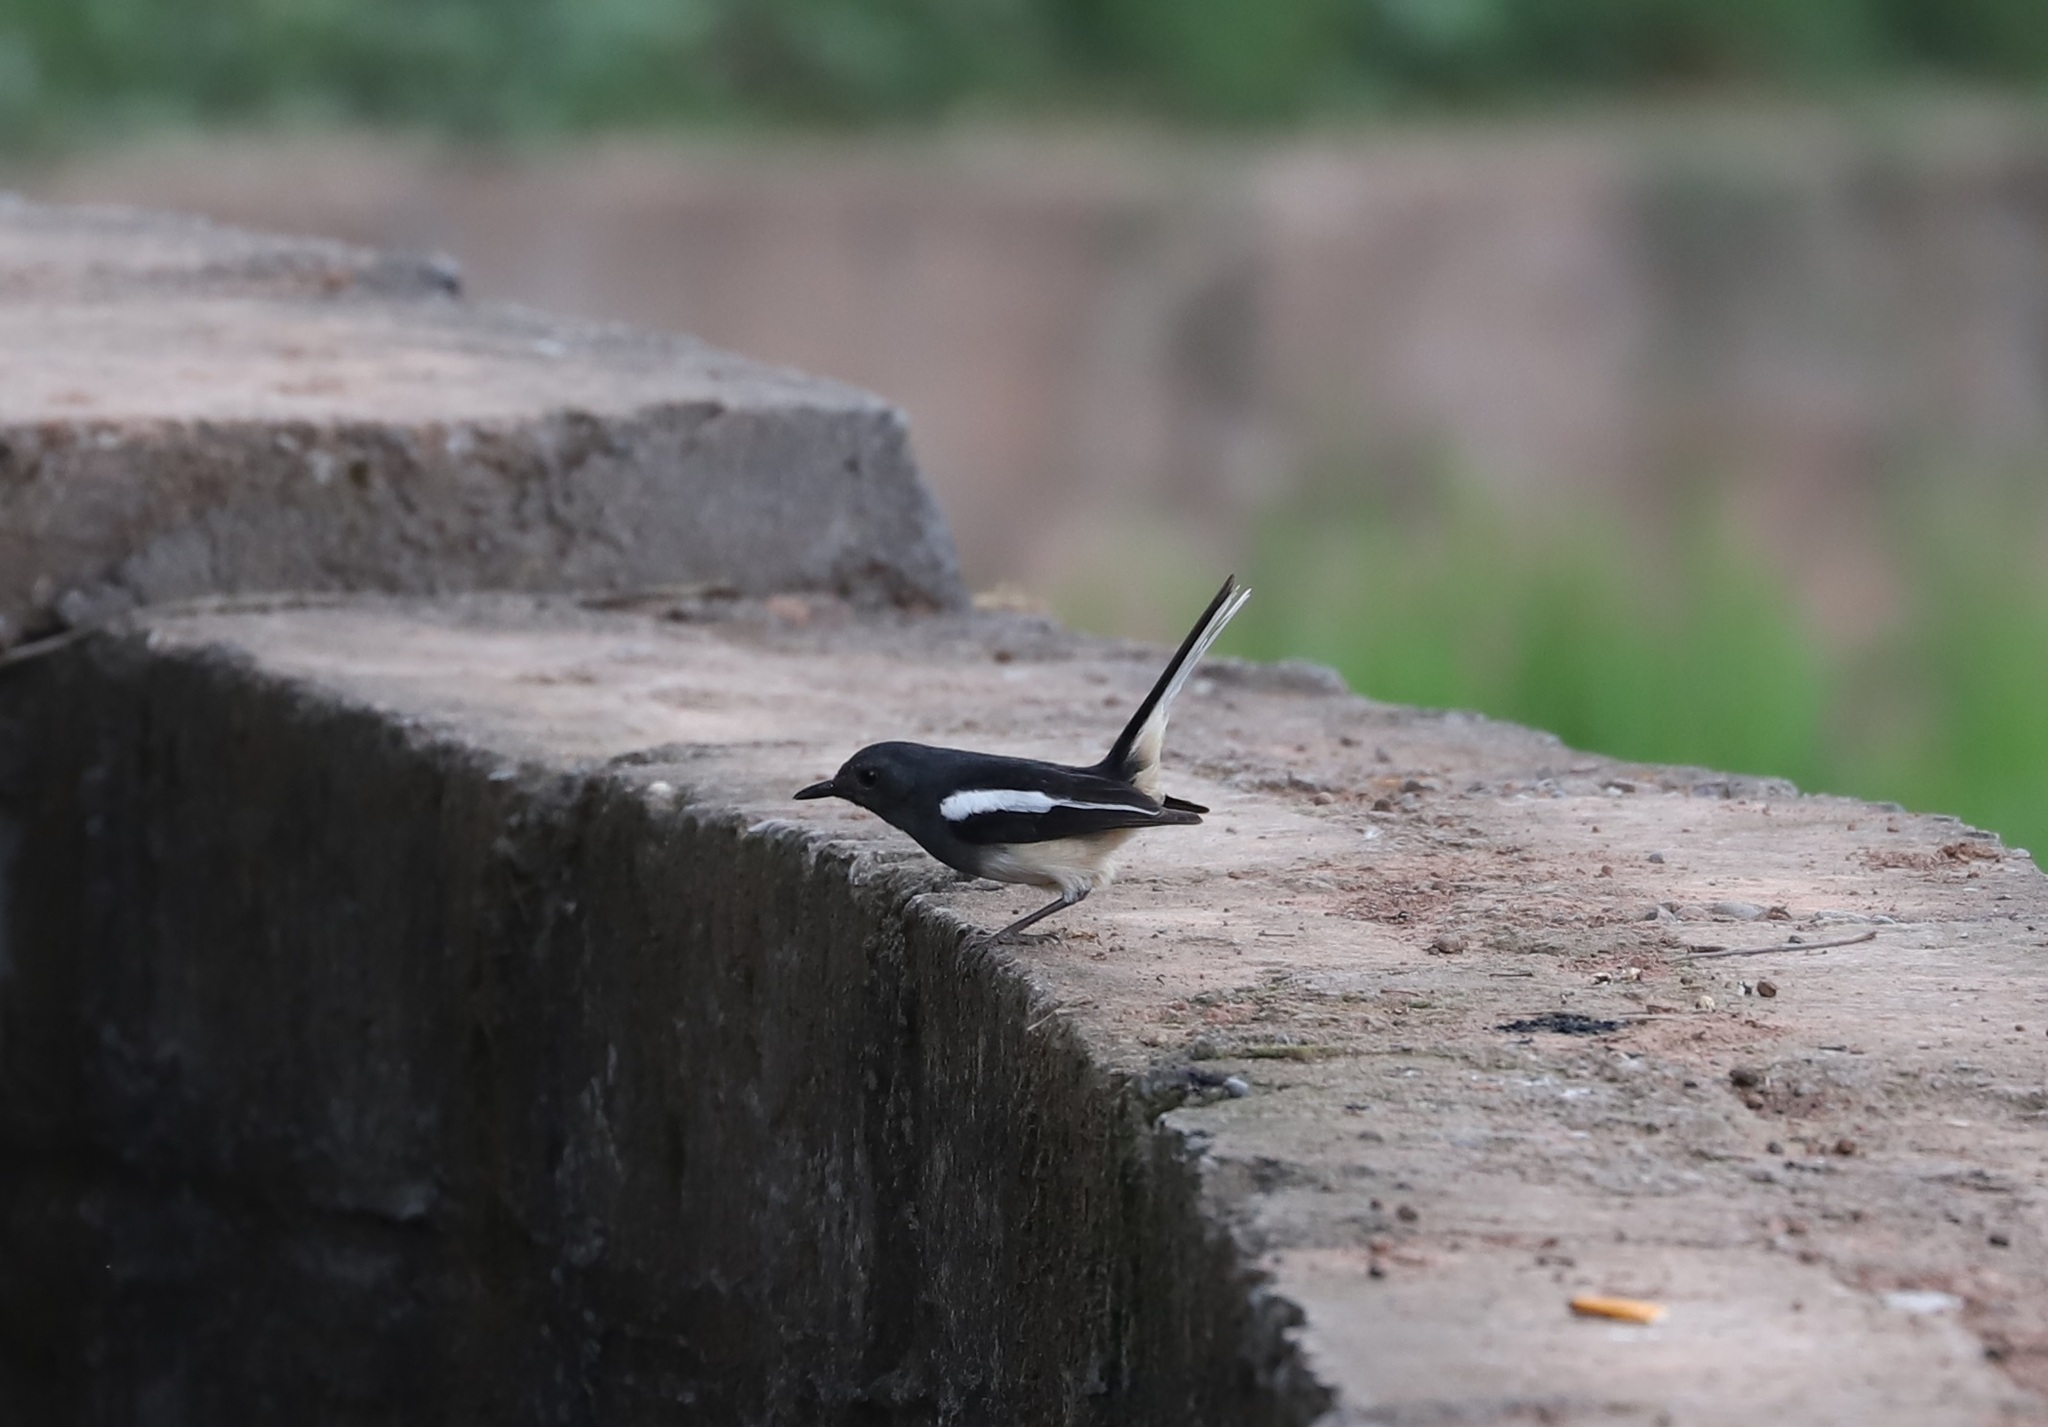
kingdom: Animalia
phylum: Chordata
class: Aves
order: Passeriformes
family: Muscicapidae
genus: Copsychus
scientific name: Copsychus saularis
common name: Oriental magpie-robin
